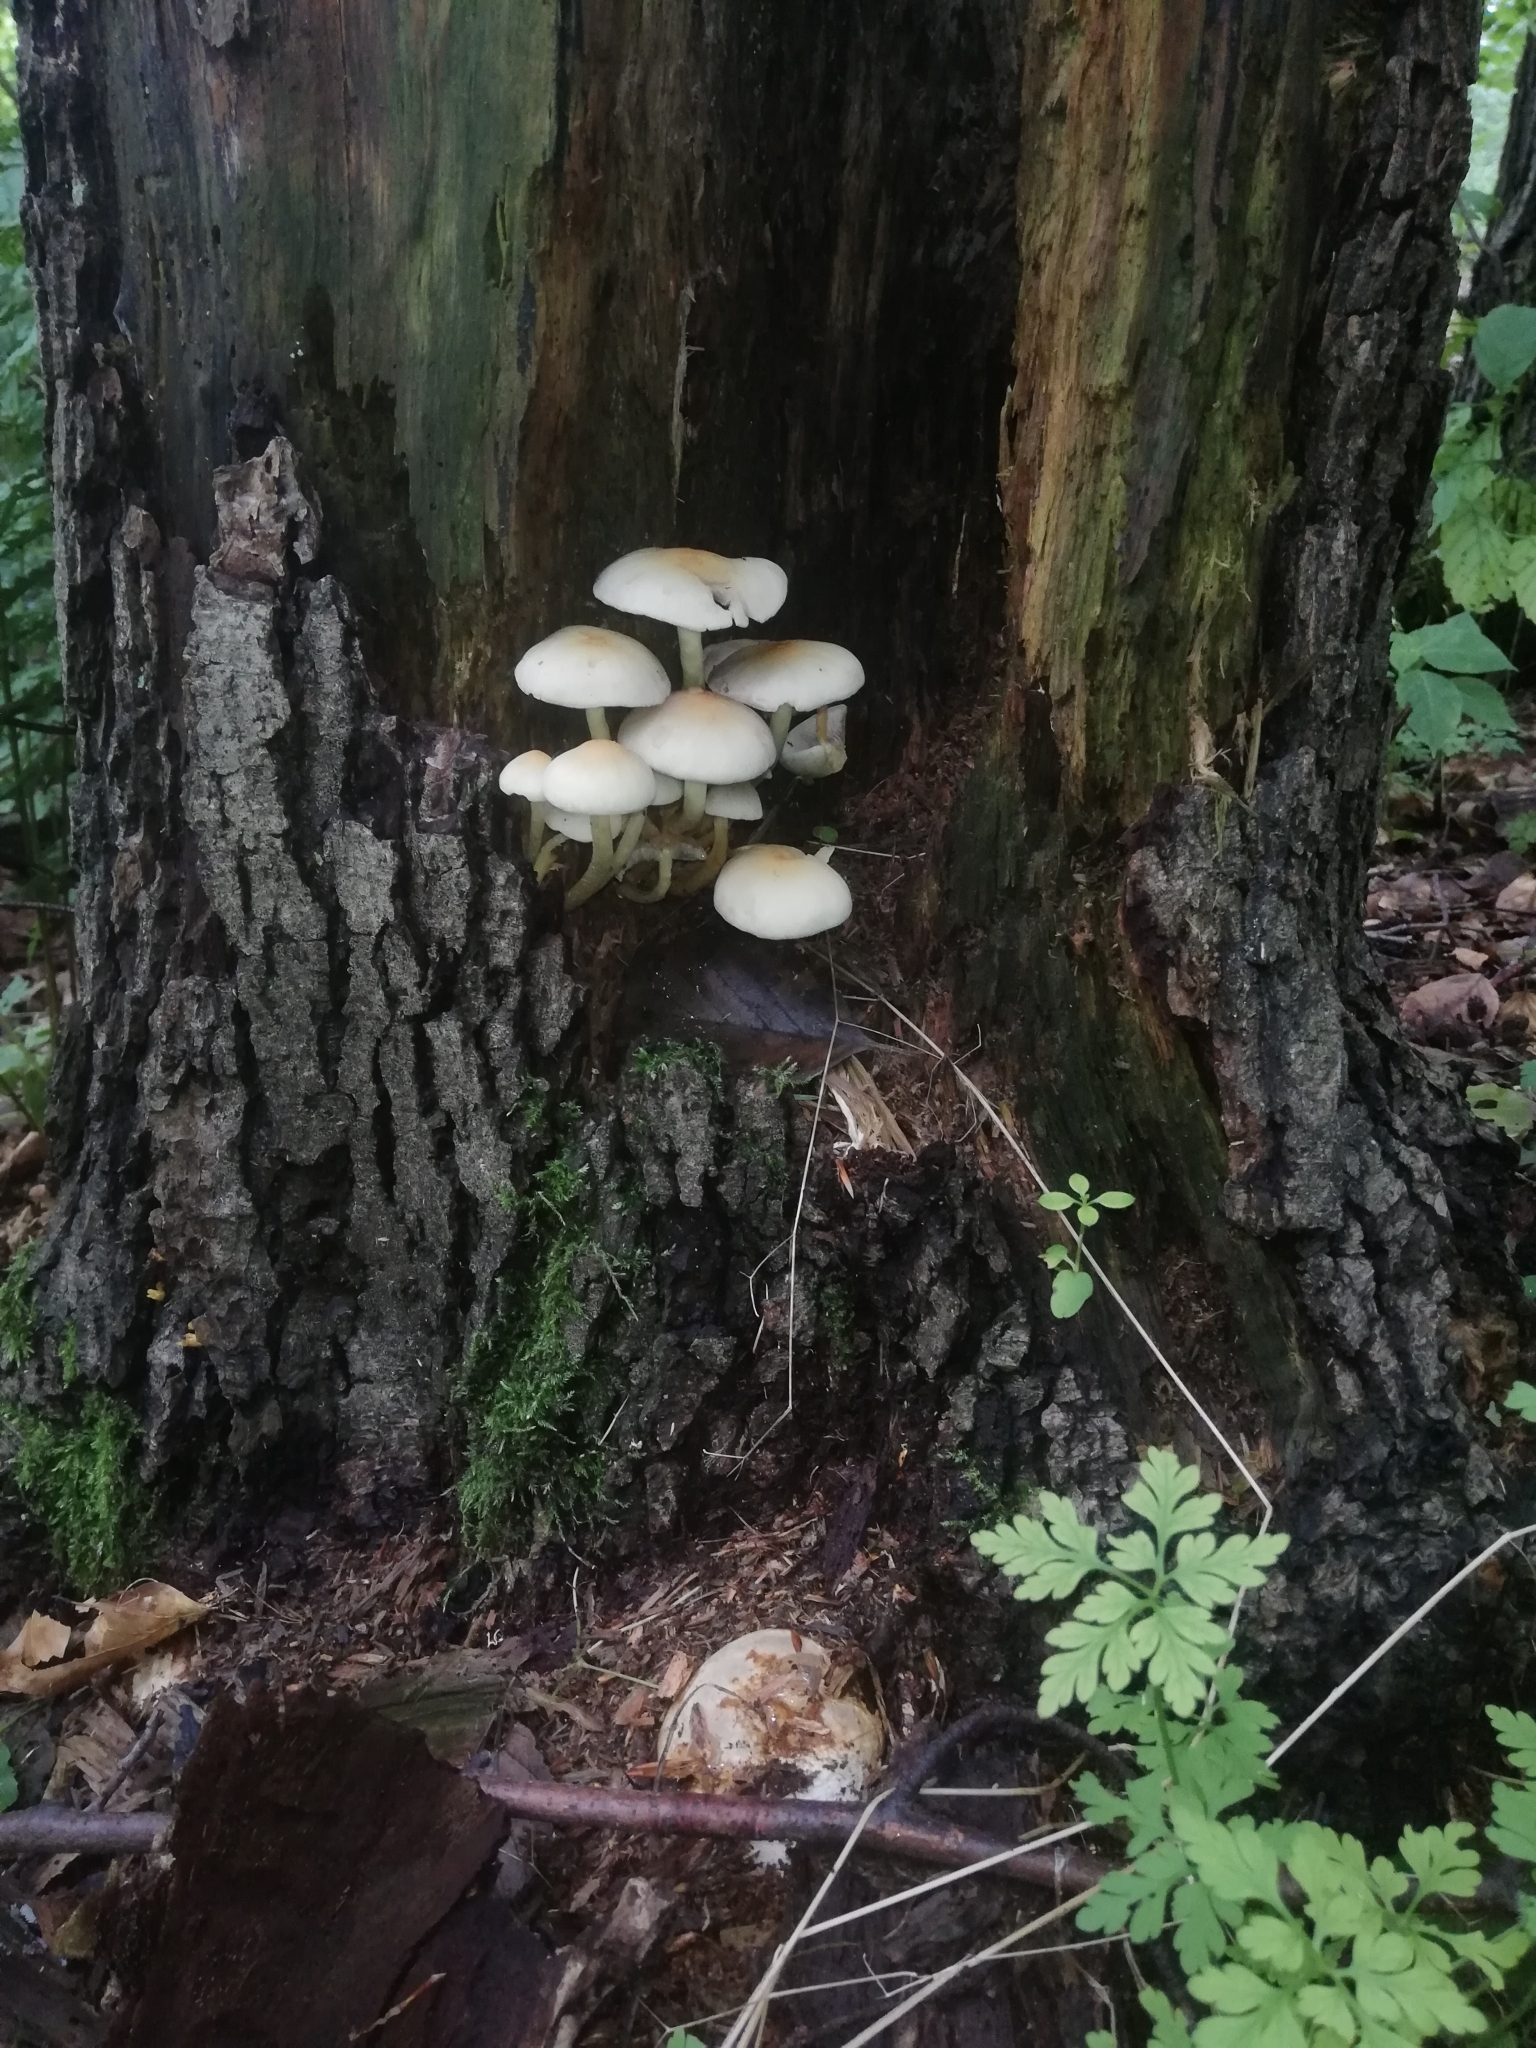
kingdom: Fungi
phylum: Basidiomycota
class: Agaricomycetes
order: Agaricales
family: Strophariaceae
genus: Hypholoma
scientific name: Hypholoma fasciculare
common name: Sulphur tuft
